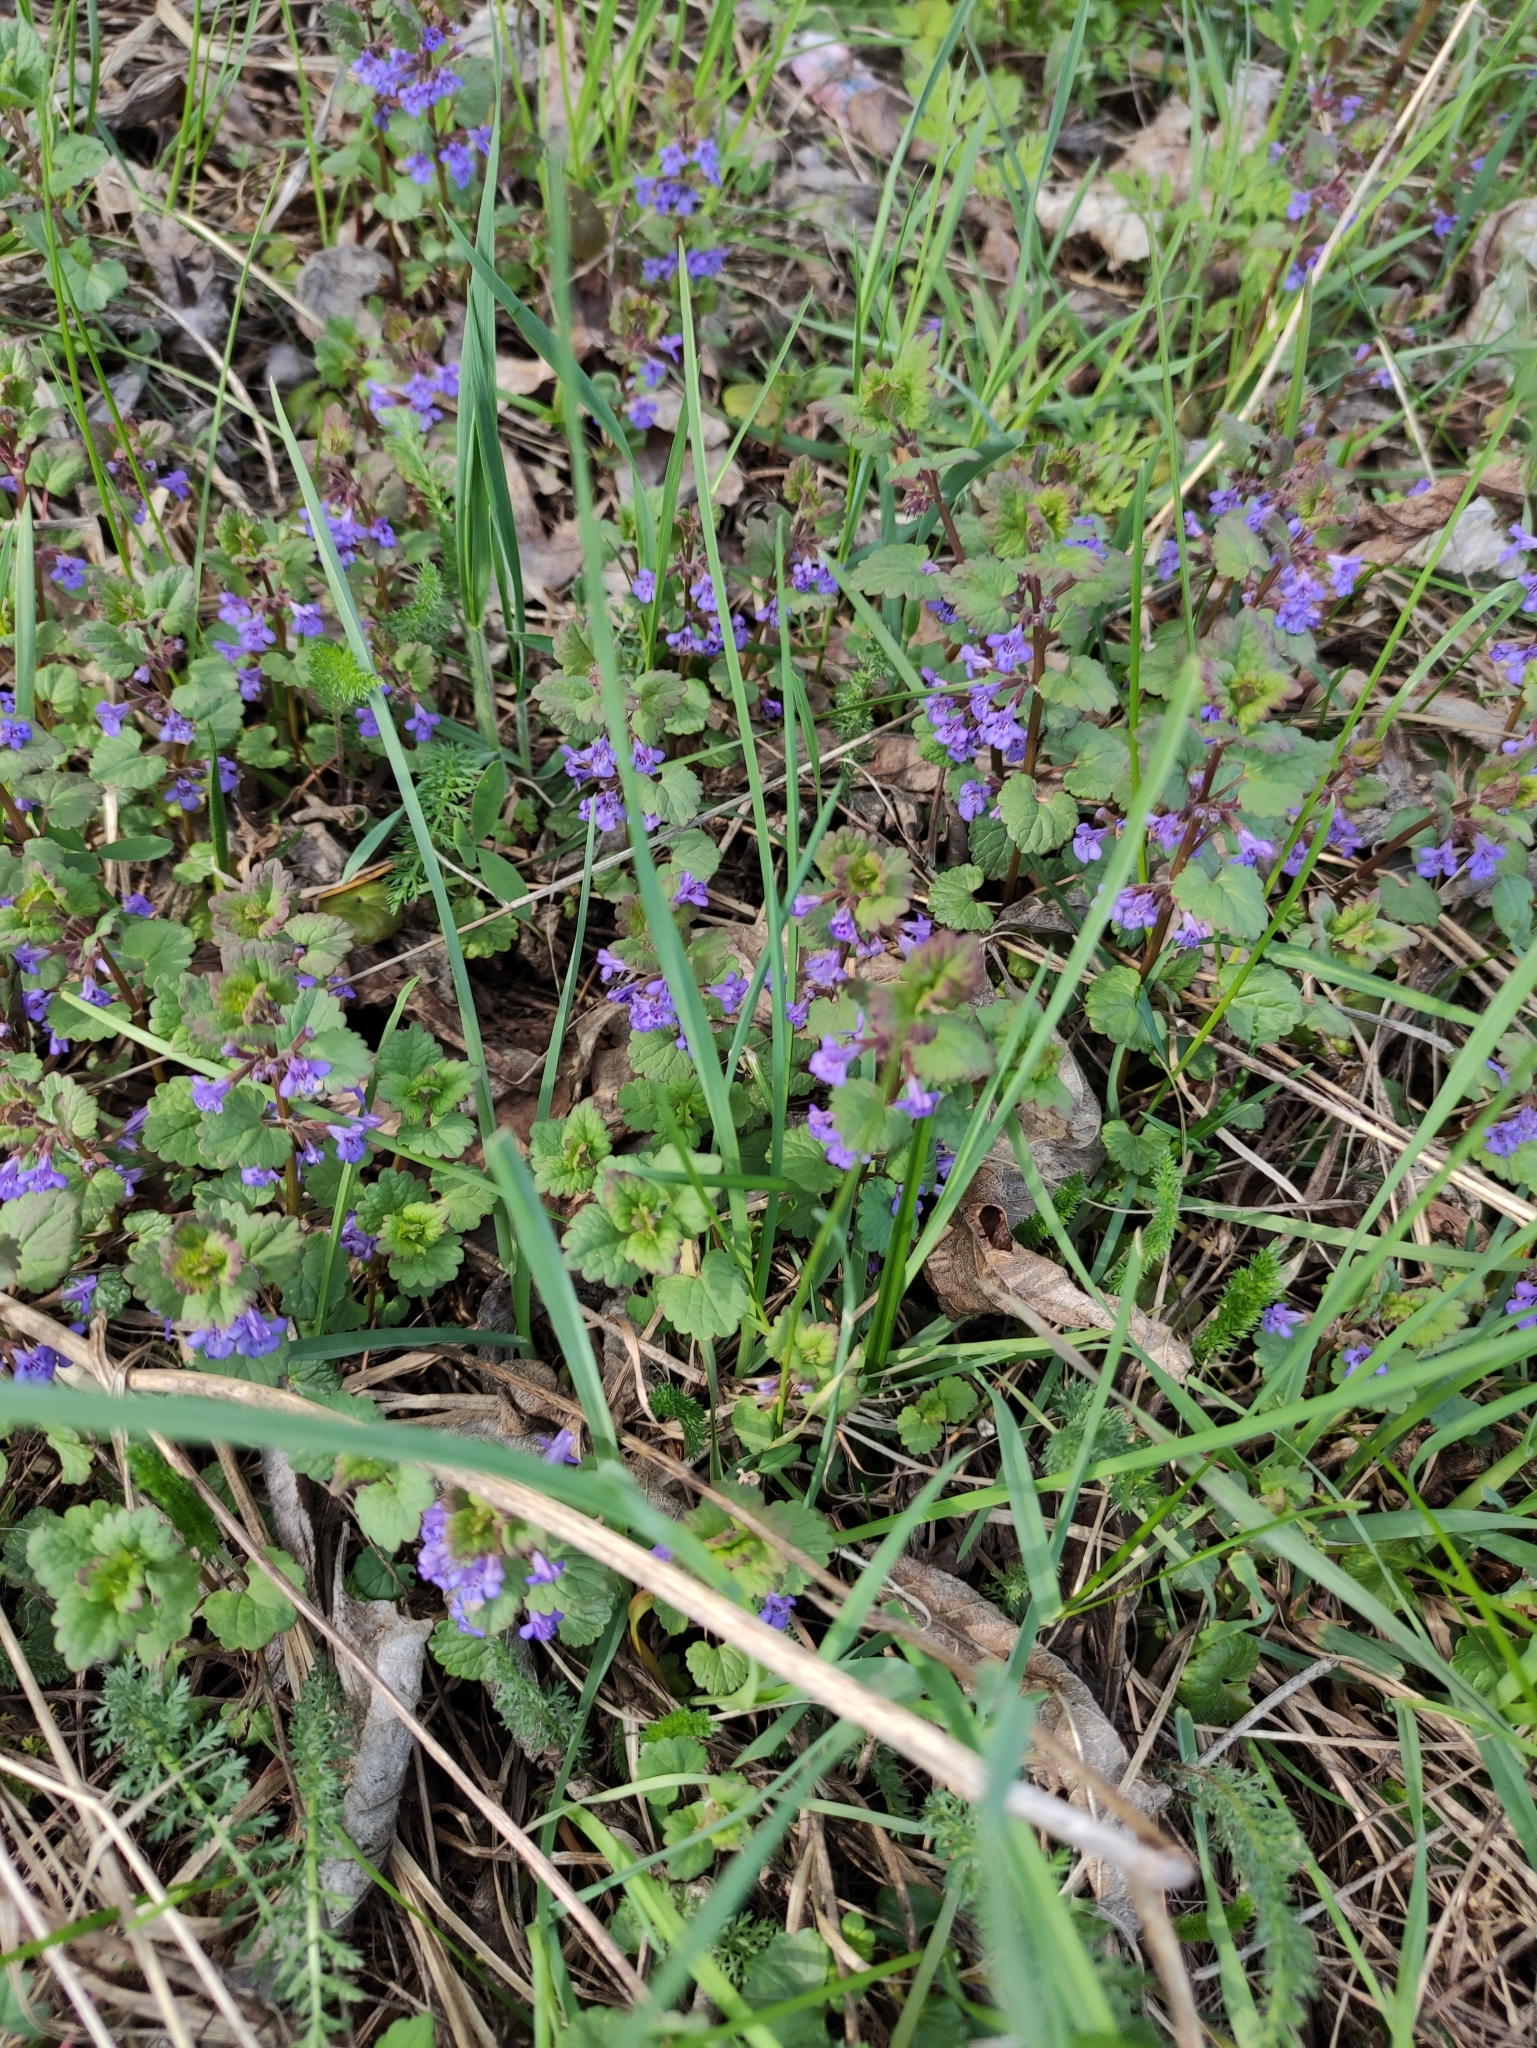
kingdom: Plantae
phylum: Tracheophyta
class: Magnoliopsida
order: Lamiales
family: Lamiaceae
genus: Glechoma
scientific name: Glechoma hederacea
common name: Ground ivy
